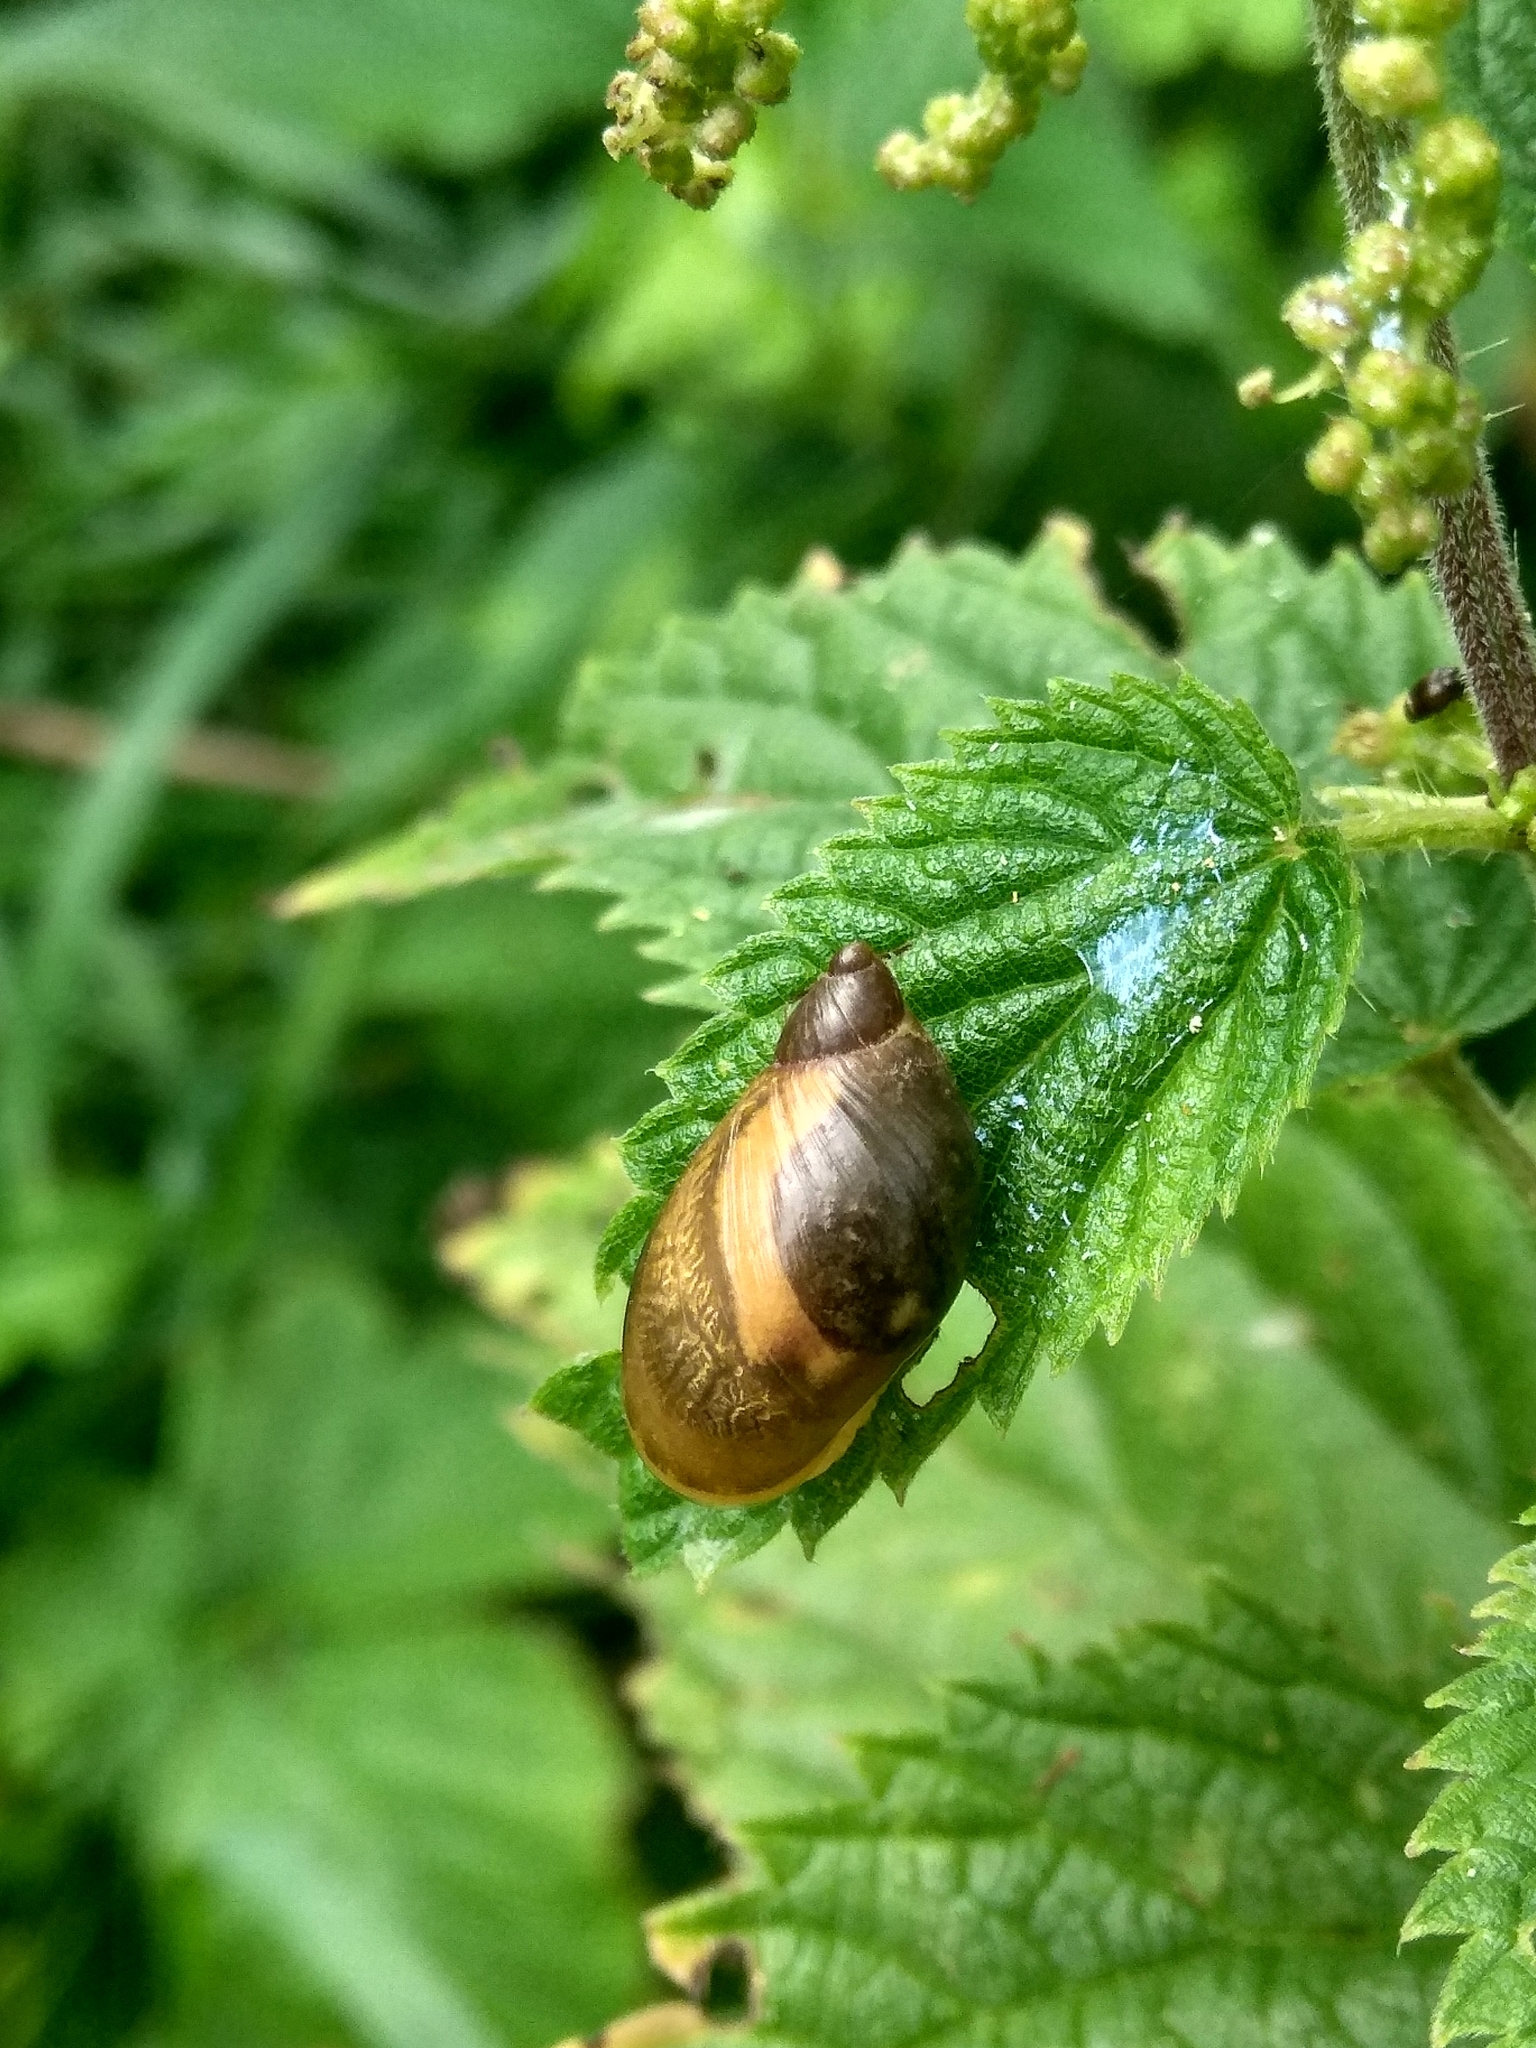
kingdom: Animalia
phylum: Mollusca
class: Gastropoda
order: Stylommatophora
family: Succineidae
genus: Succinea
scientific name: Succinea putris
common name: European ambersnail
